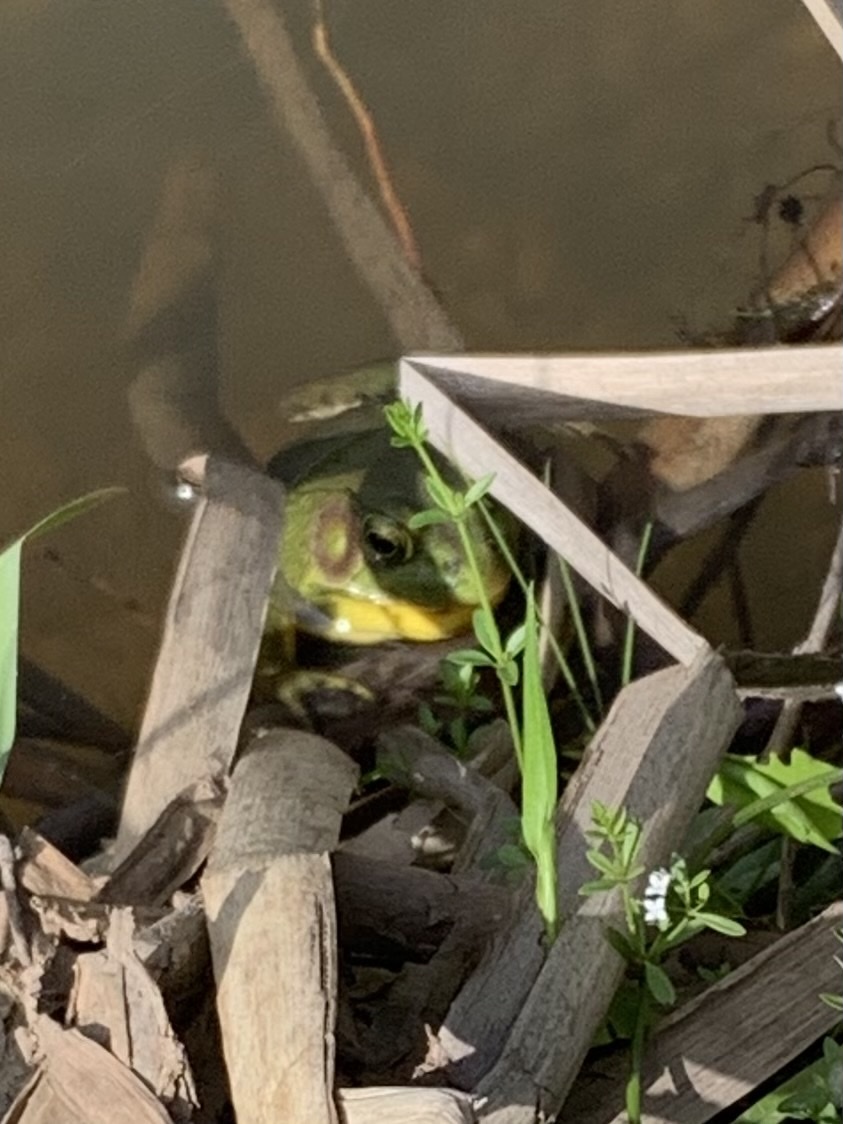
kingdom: Animalia
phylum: Chordata
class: Amphibia
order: Anura
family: Ranidae
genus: Lithobates
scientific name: Lithobates clamitans
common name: Green frog
